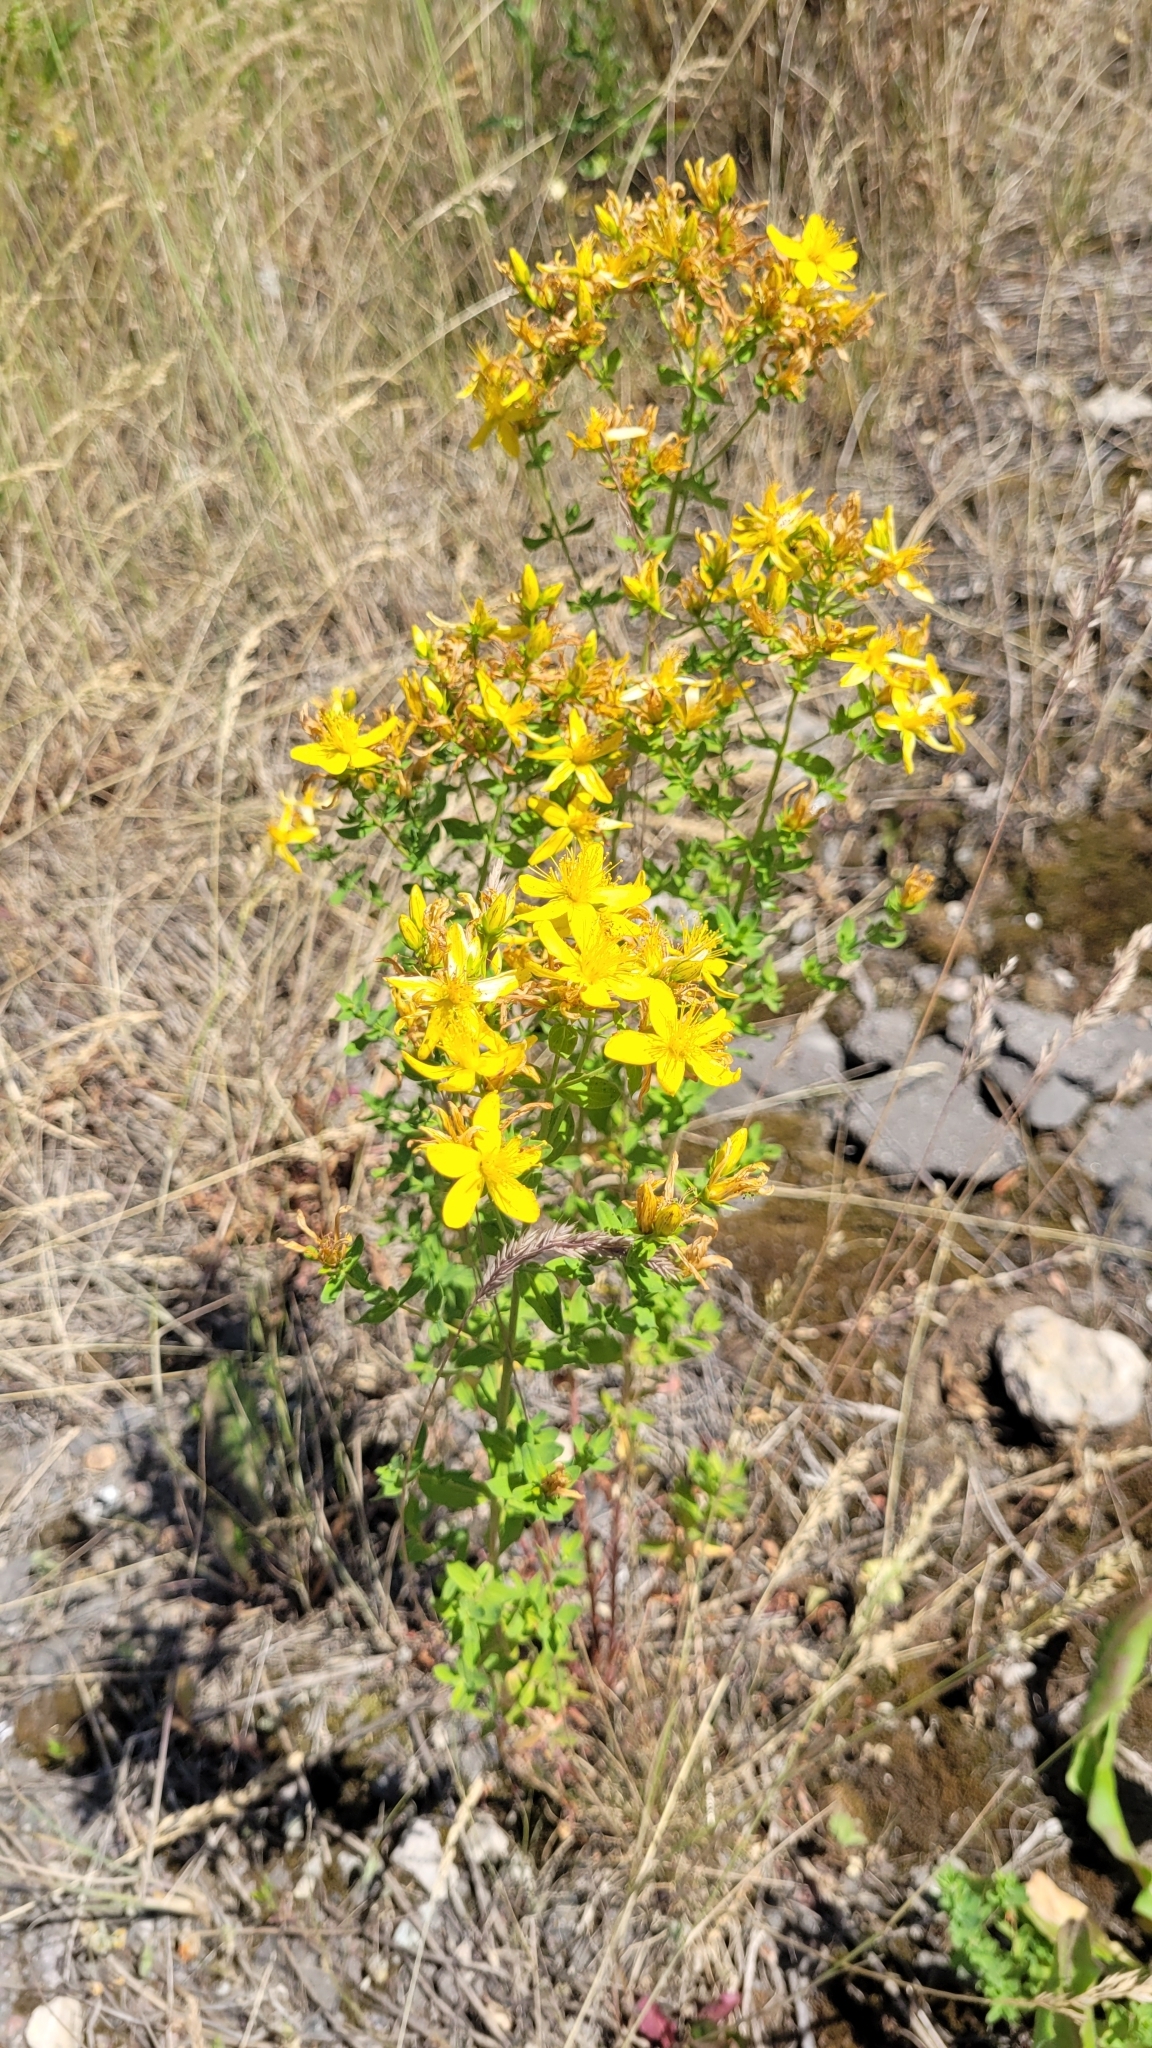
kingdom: Plantae
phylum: Tracheophyta
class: Magnoliopsida
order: Malpighiales
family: Hypericaceae
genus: Hypericum
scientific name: Hypericum perforatum
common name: Common st. johnswort
